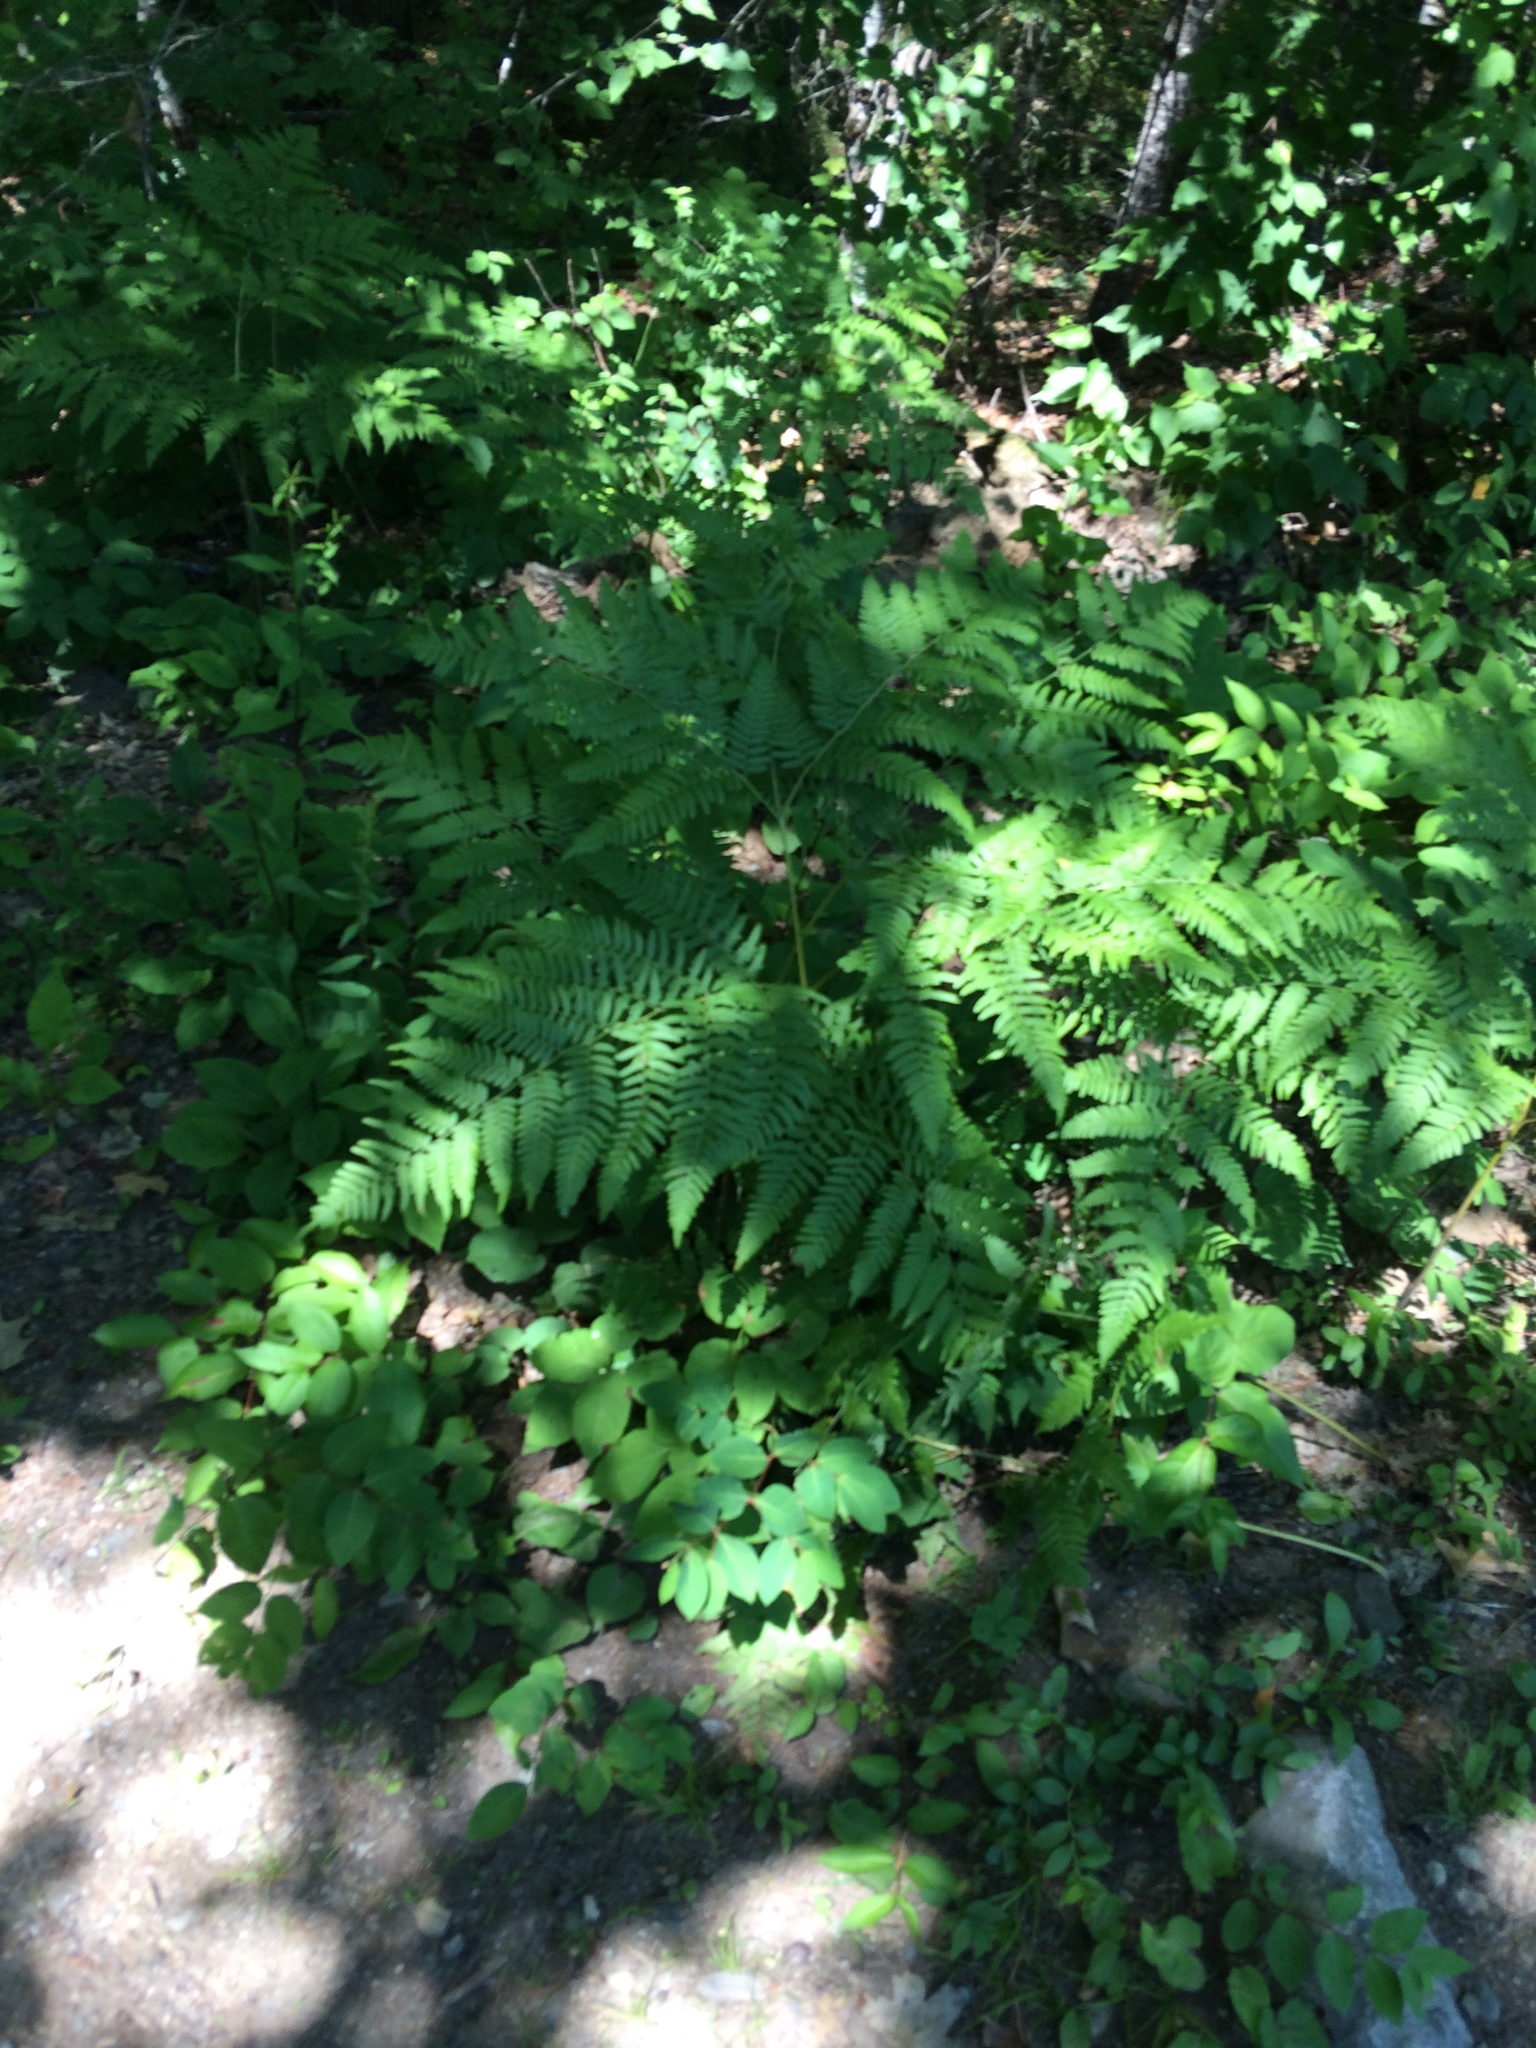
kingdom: Plantae
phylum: Tracheophyta
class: Polypodiopsida
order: Polypodiales
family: Dennstaedtiaceae
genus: Pteridium
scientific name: Pteridium aquilinum
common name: Bracken
